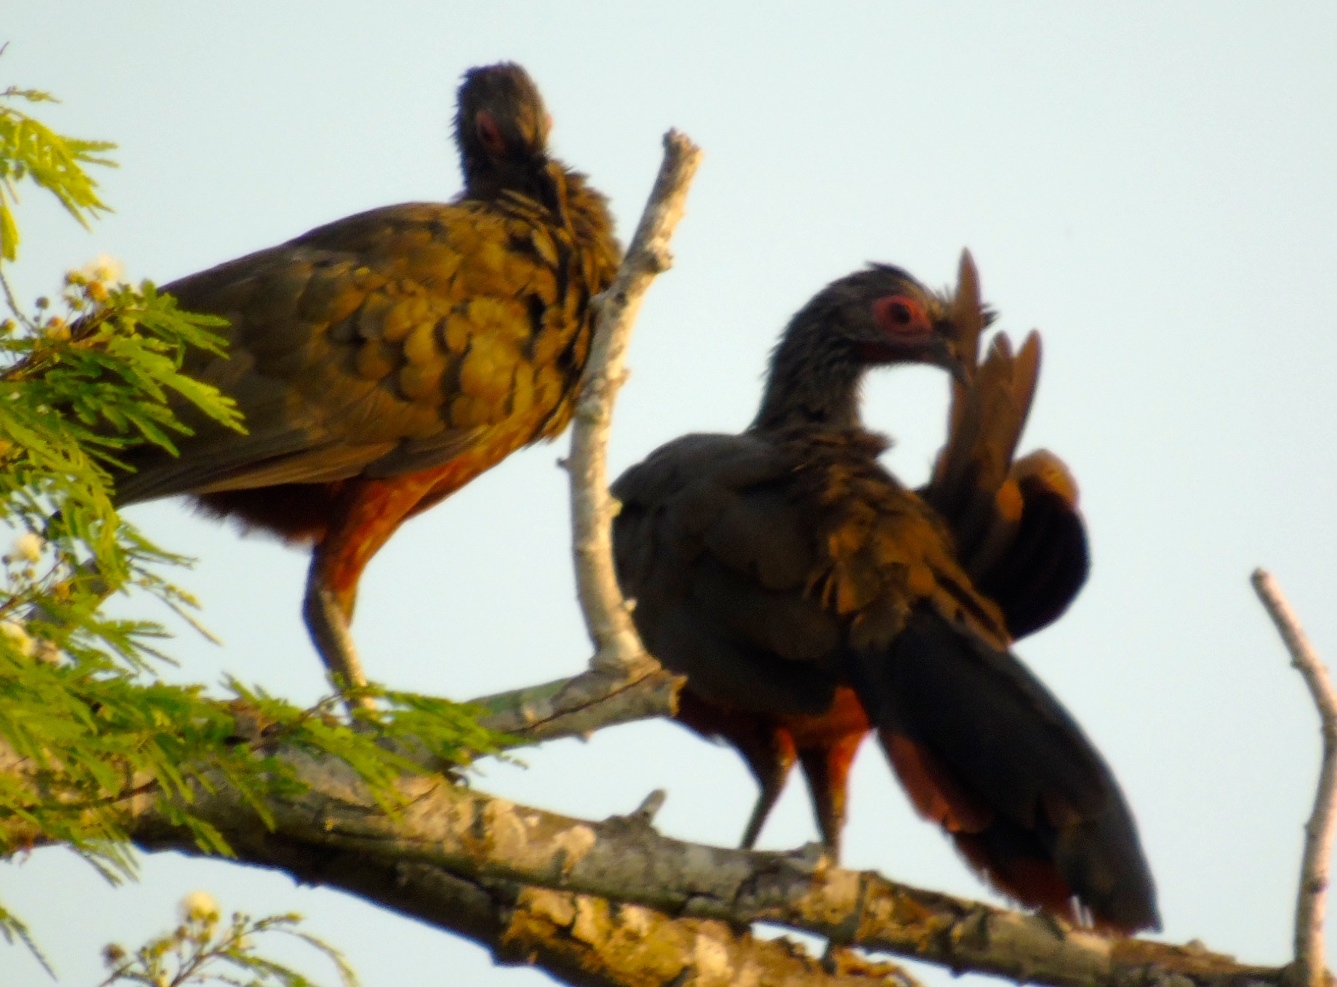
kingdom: Animalia
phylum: Chordata
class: Aves
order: Galliformes
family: Cracidae
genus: Ortalis
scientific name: Ortalis wagleri
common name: Rufous-bellied chachalaca
